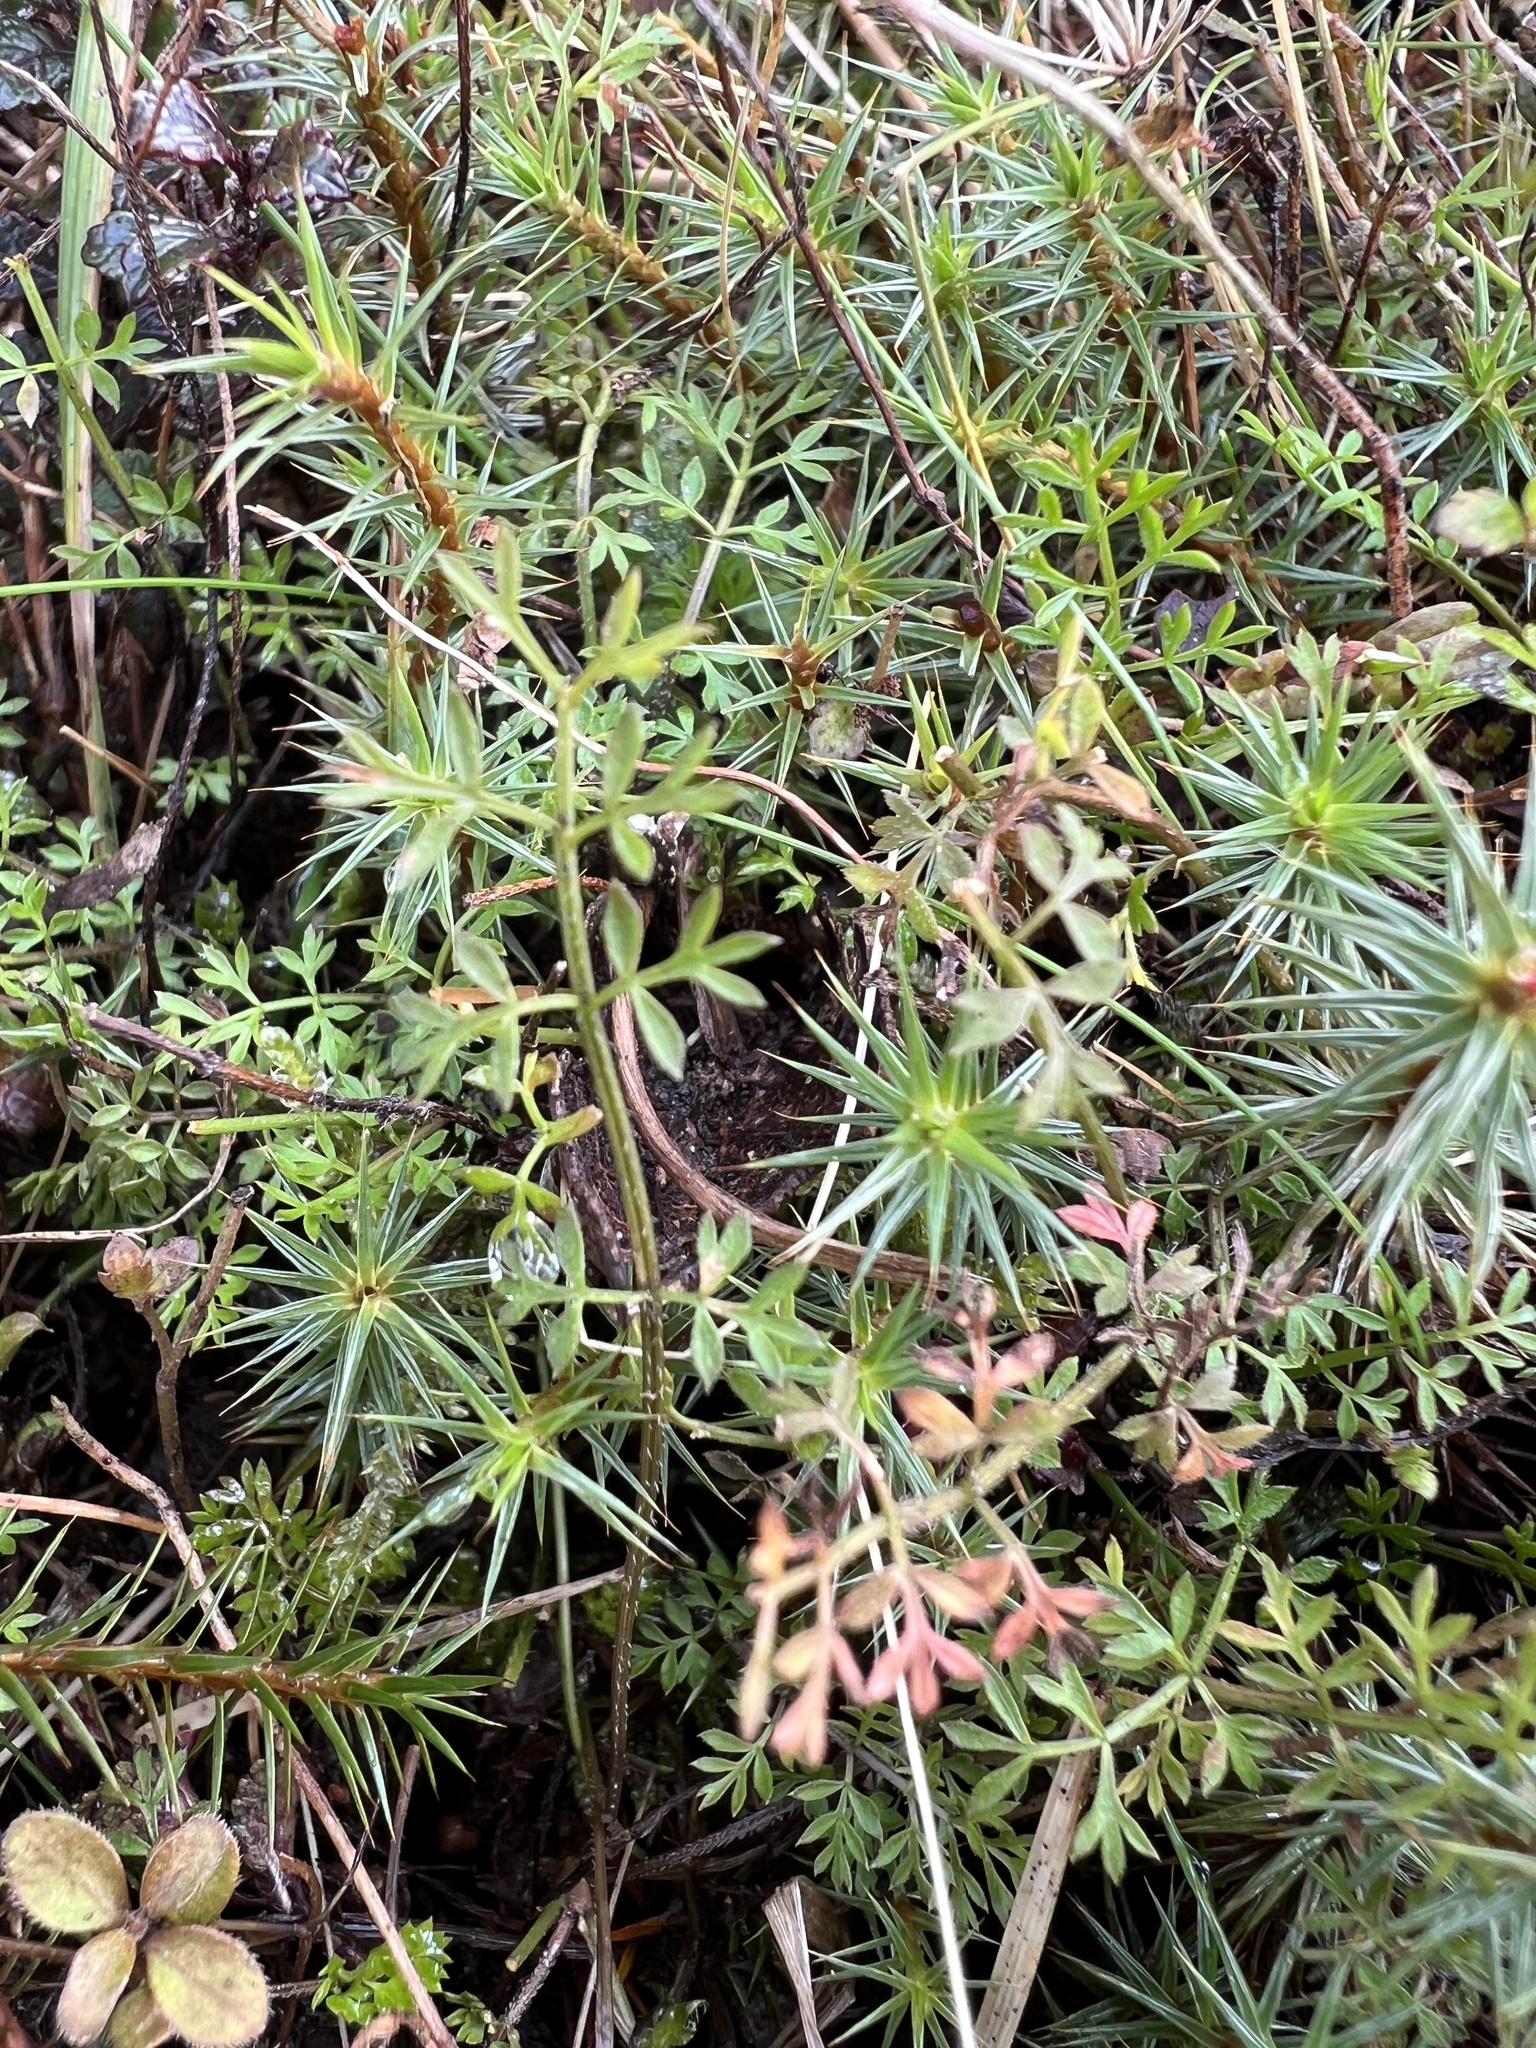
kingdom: Plantae
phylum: Tracheophyta
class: Magnoliopsida
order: Apiales
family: Apiaceae
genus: Chaerophyllum
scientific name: Chaerophyllum ramosum
